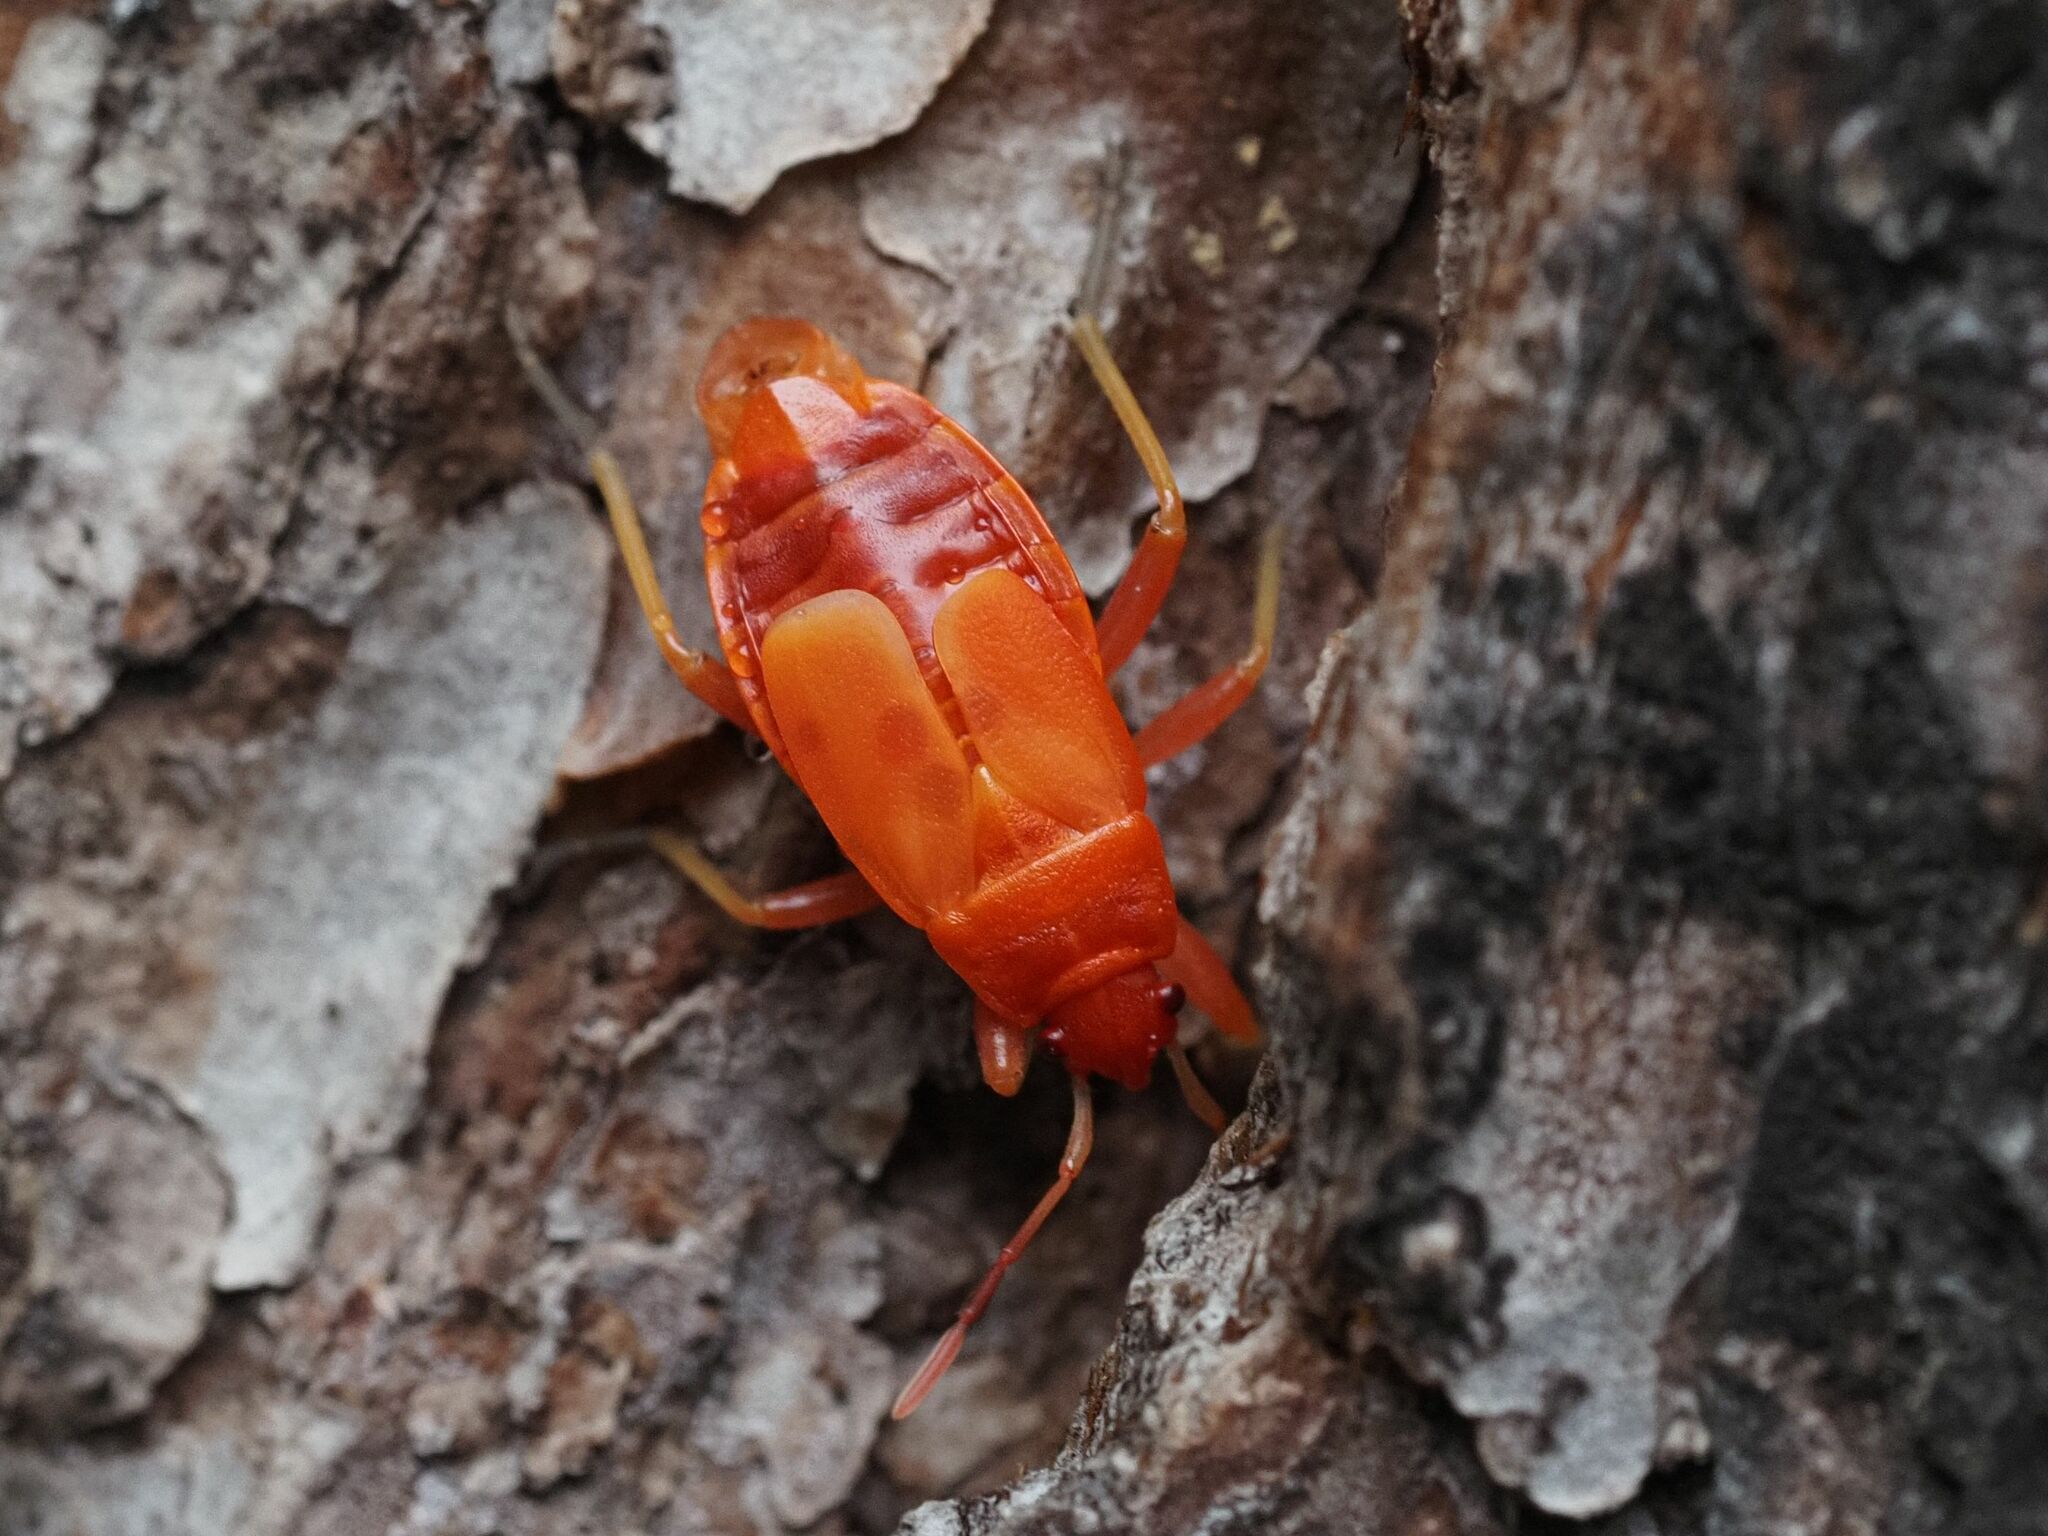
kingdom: Animalia
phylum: Arthropoda
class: Insecta
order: Hemiptera
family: Pyrrhocoridae
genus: Pyrrhocoris
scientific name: Pyrrhocoris apterus
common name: Firebug
